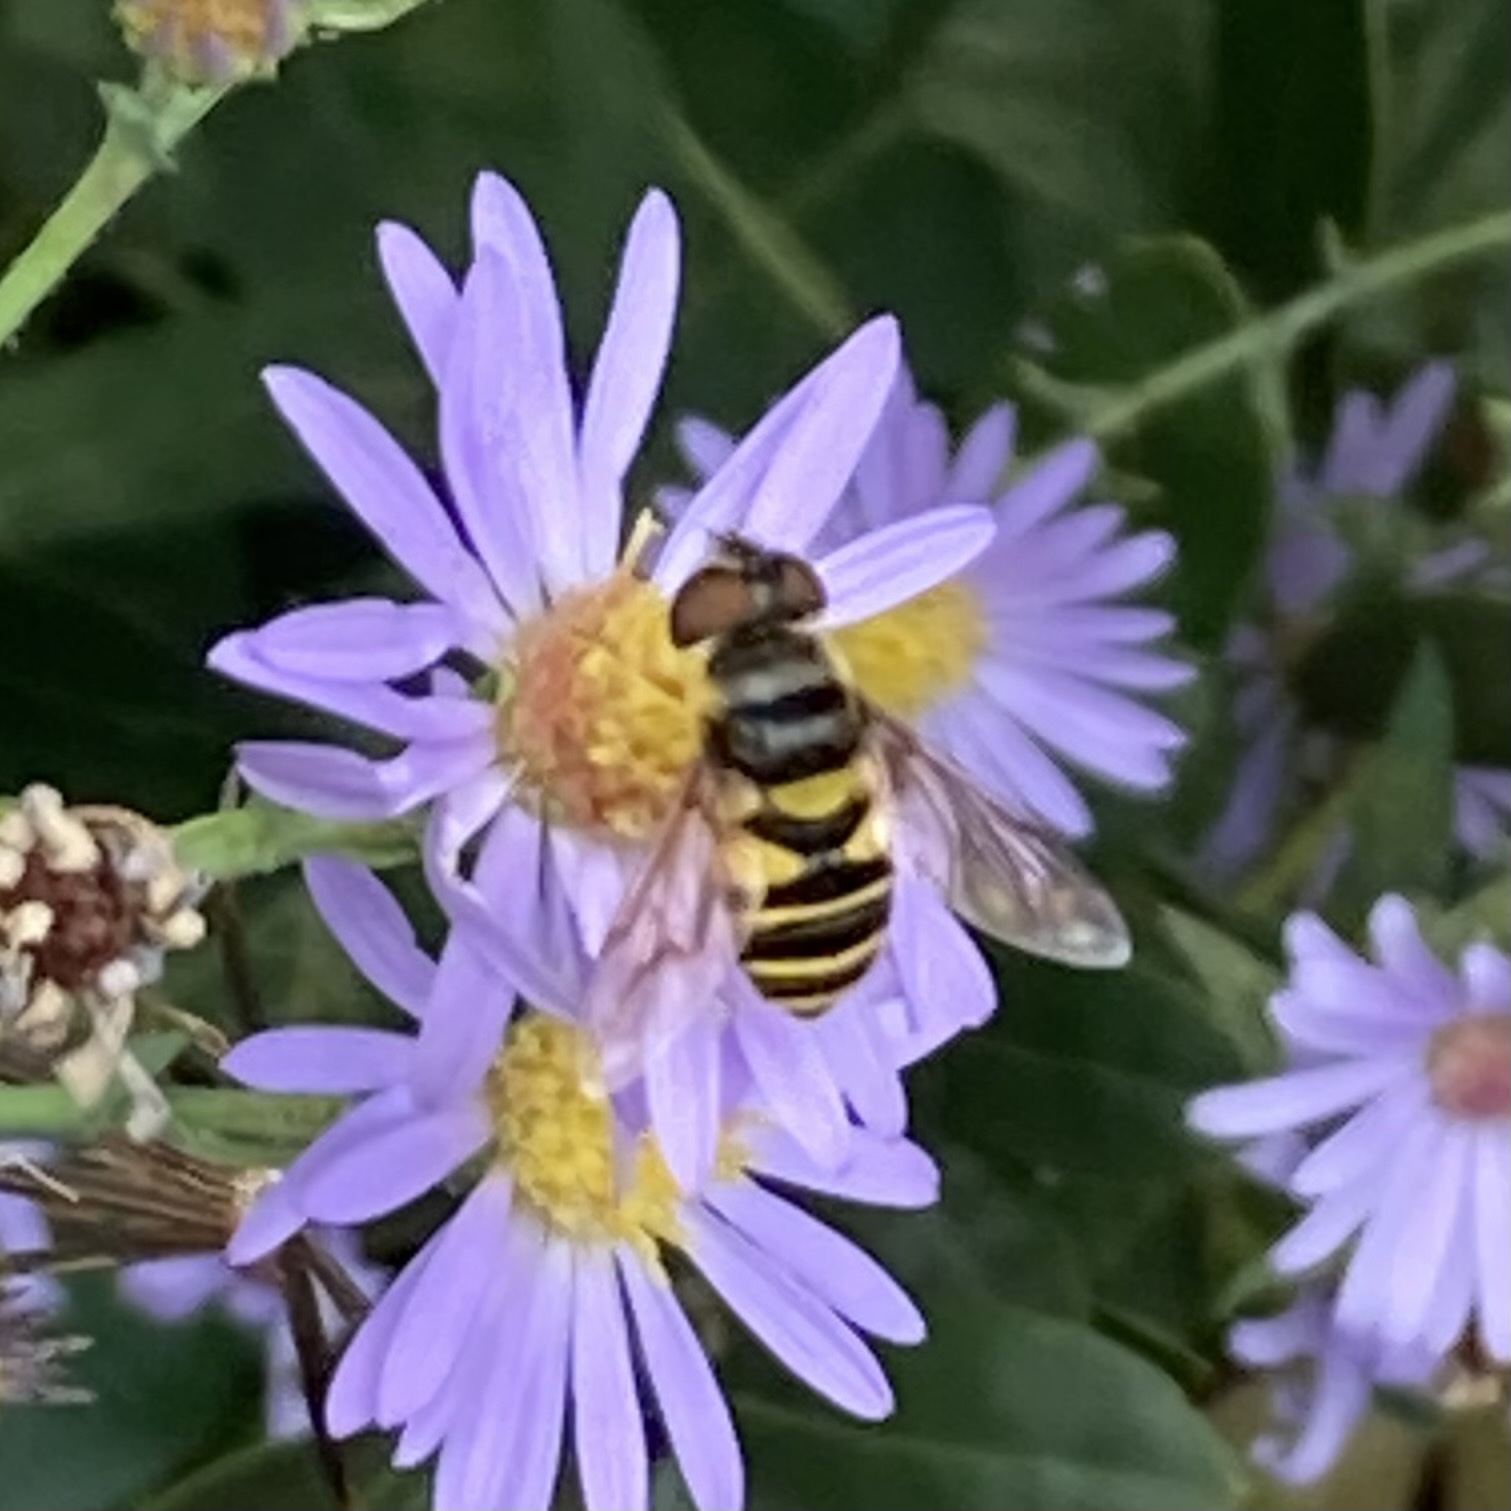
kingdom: Animalia
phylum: Arthropoda
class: Insecta
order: Diptera
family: Syrphidae
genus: Eristalis
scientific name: Eristalis transversa
